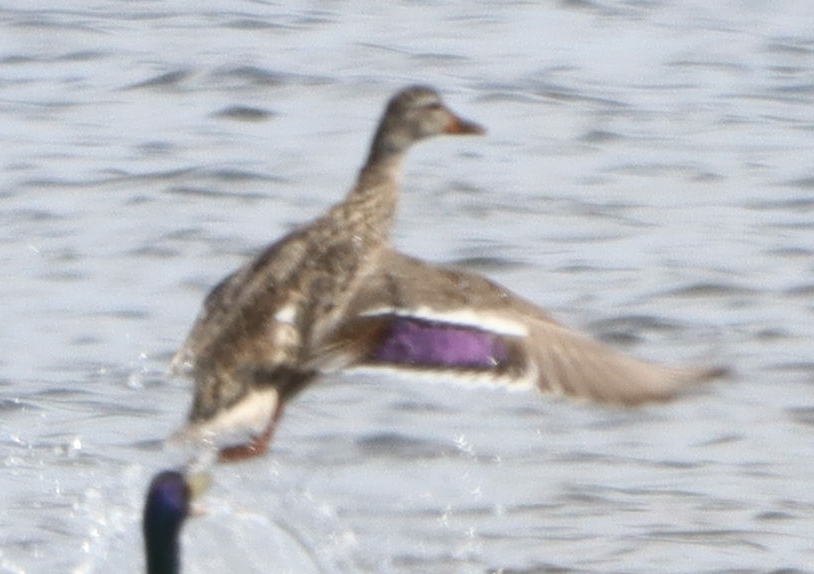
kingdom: Animalia
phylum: Chordata
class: Aves
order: Anseriformes
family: Anatidae
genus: Anas
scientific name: Anas platyrhynchos
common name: Mallard
